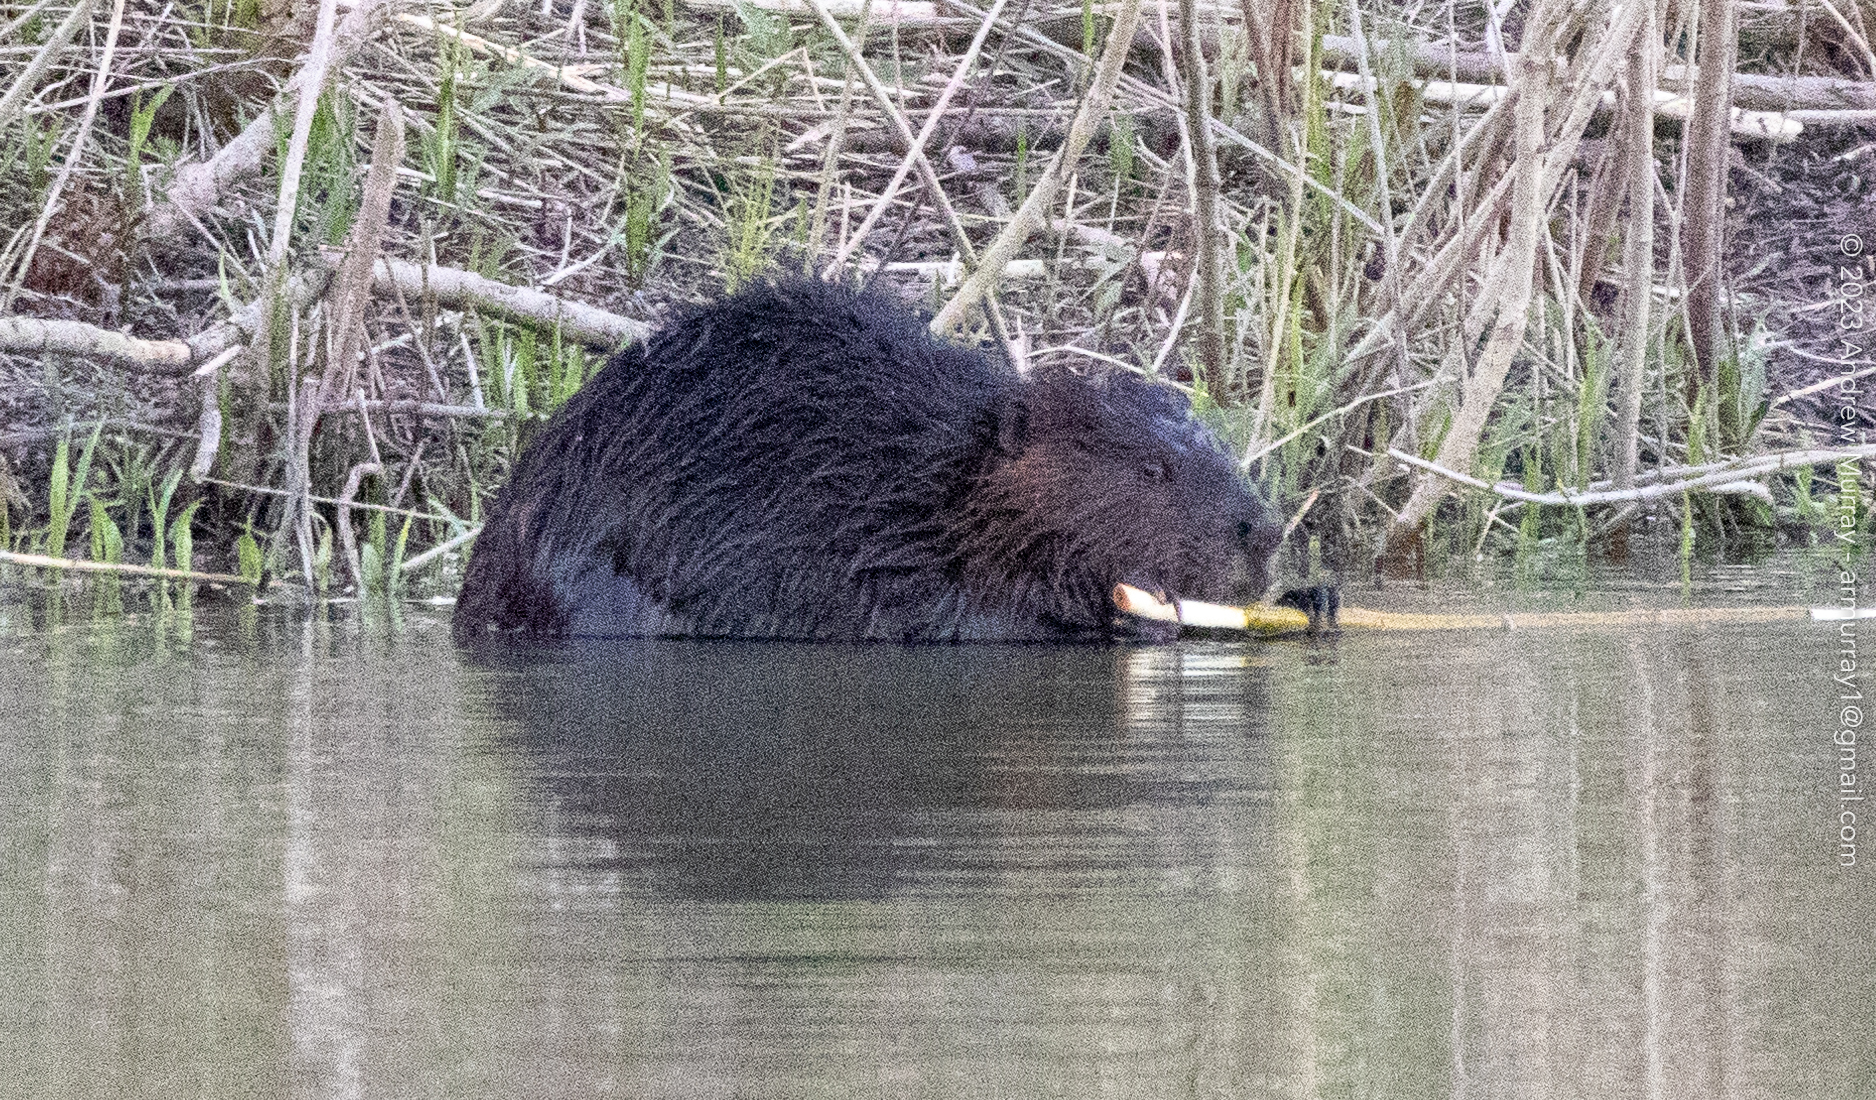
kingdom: Animalia
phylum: Chordata
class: Mammalia
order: Rodentia
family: Castoridae
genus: Castor
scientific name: Castor canadensis
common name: American beaver
